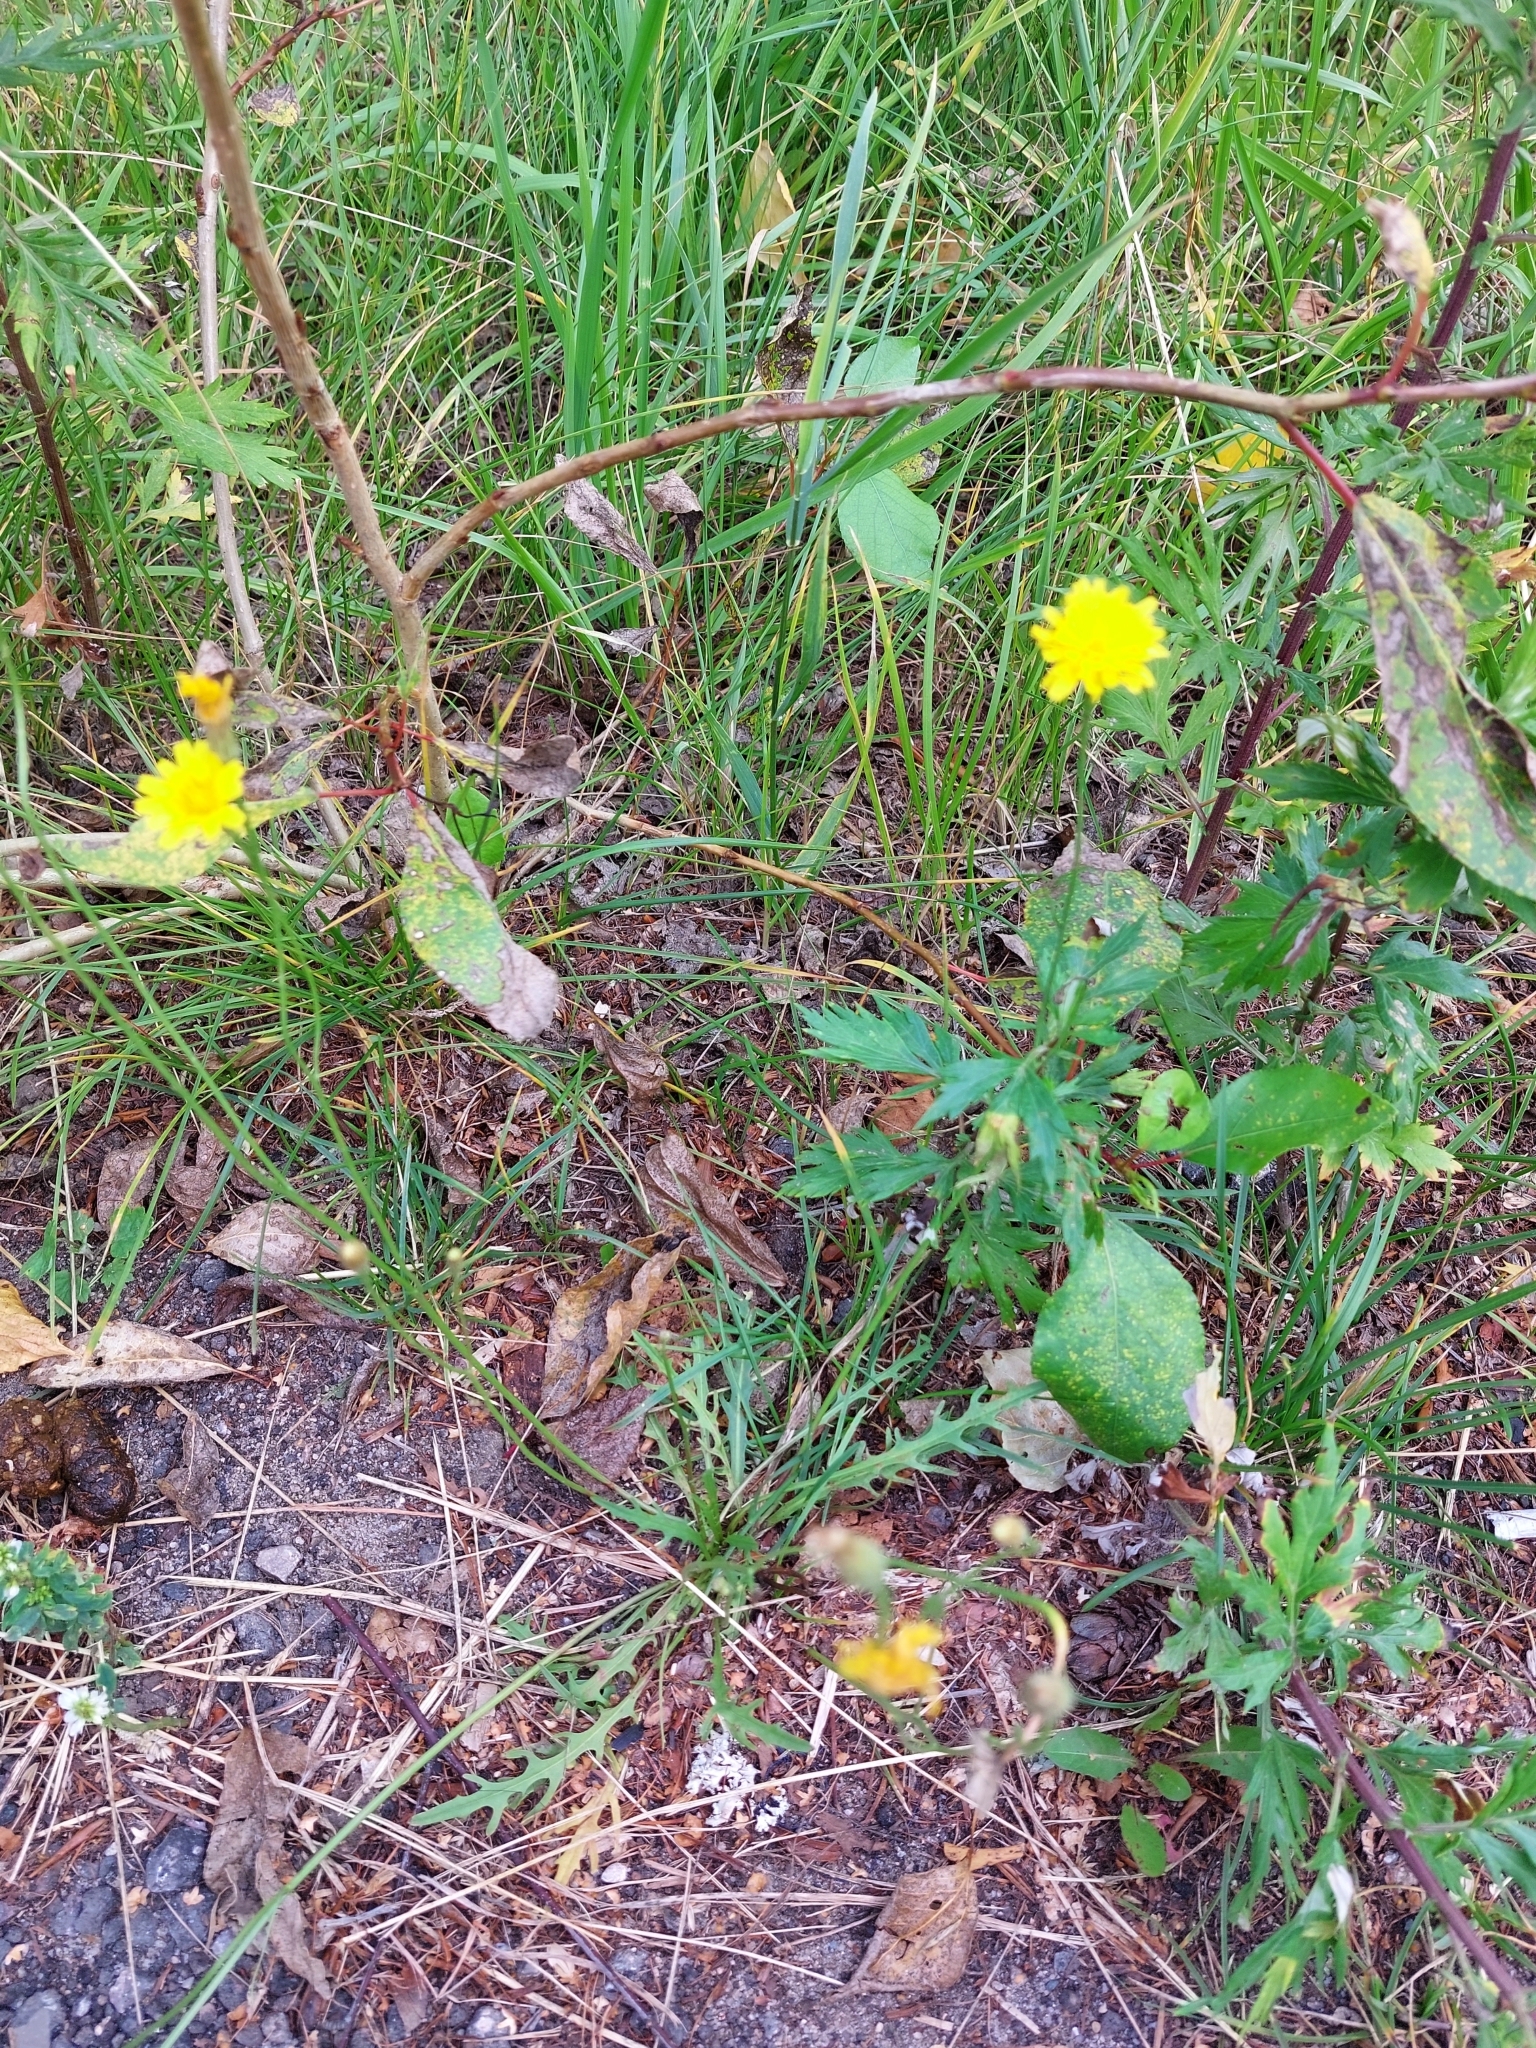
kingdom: Plantae
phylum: Tracheophyta
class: Magnoliopsida
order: Asterales
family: Asteraceae
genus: Scorzoneroides
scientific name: Scorzoneroides autumnalis
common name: Autumn hawkbit
